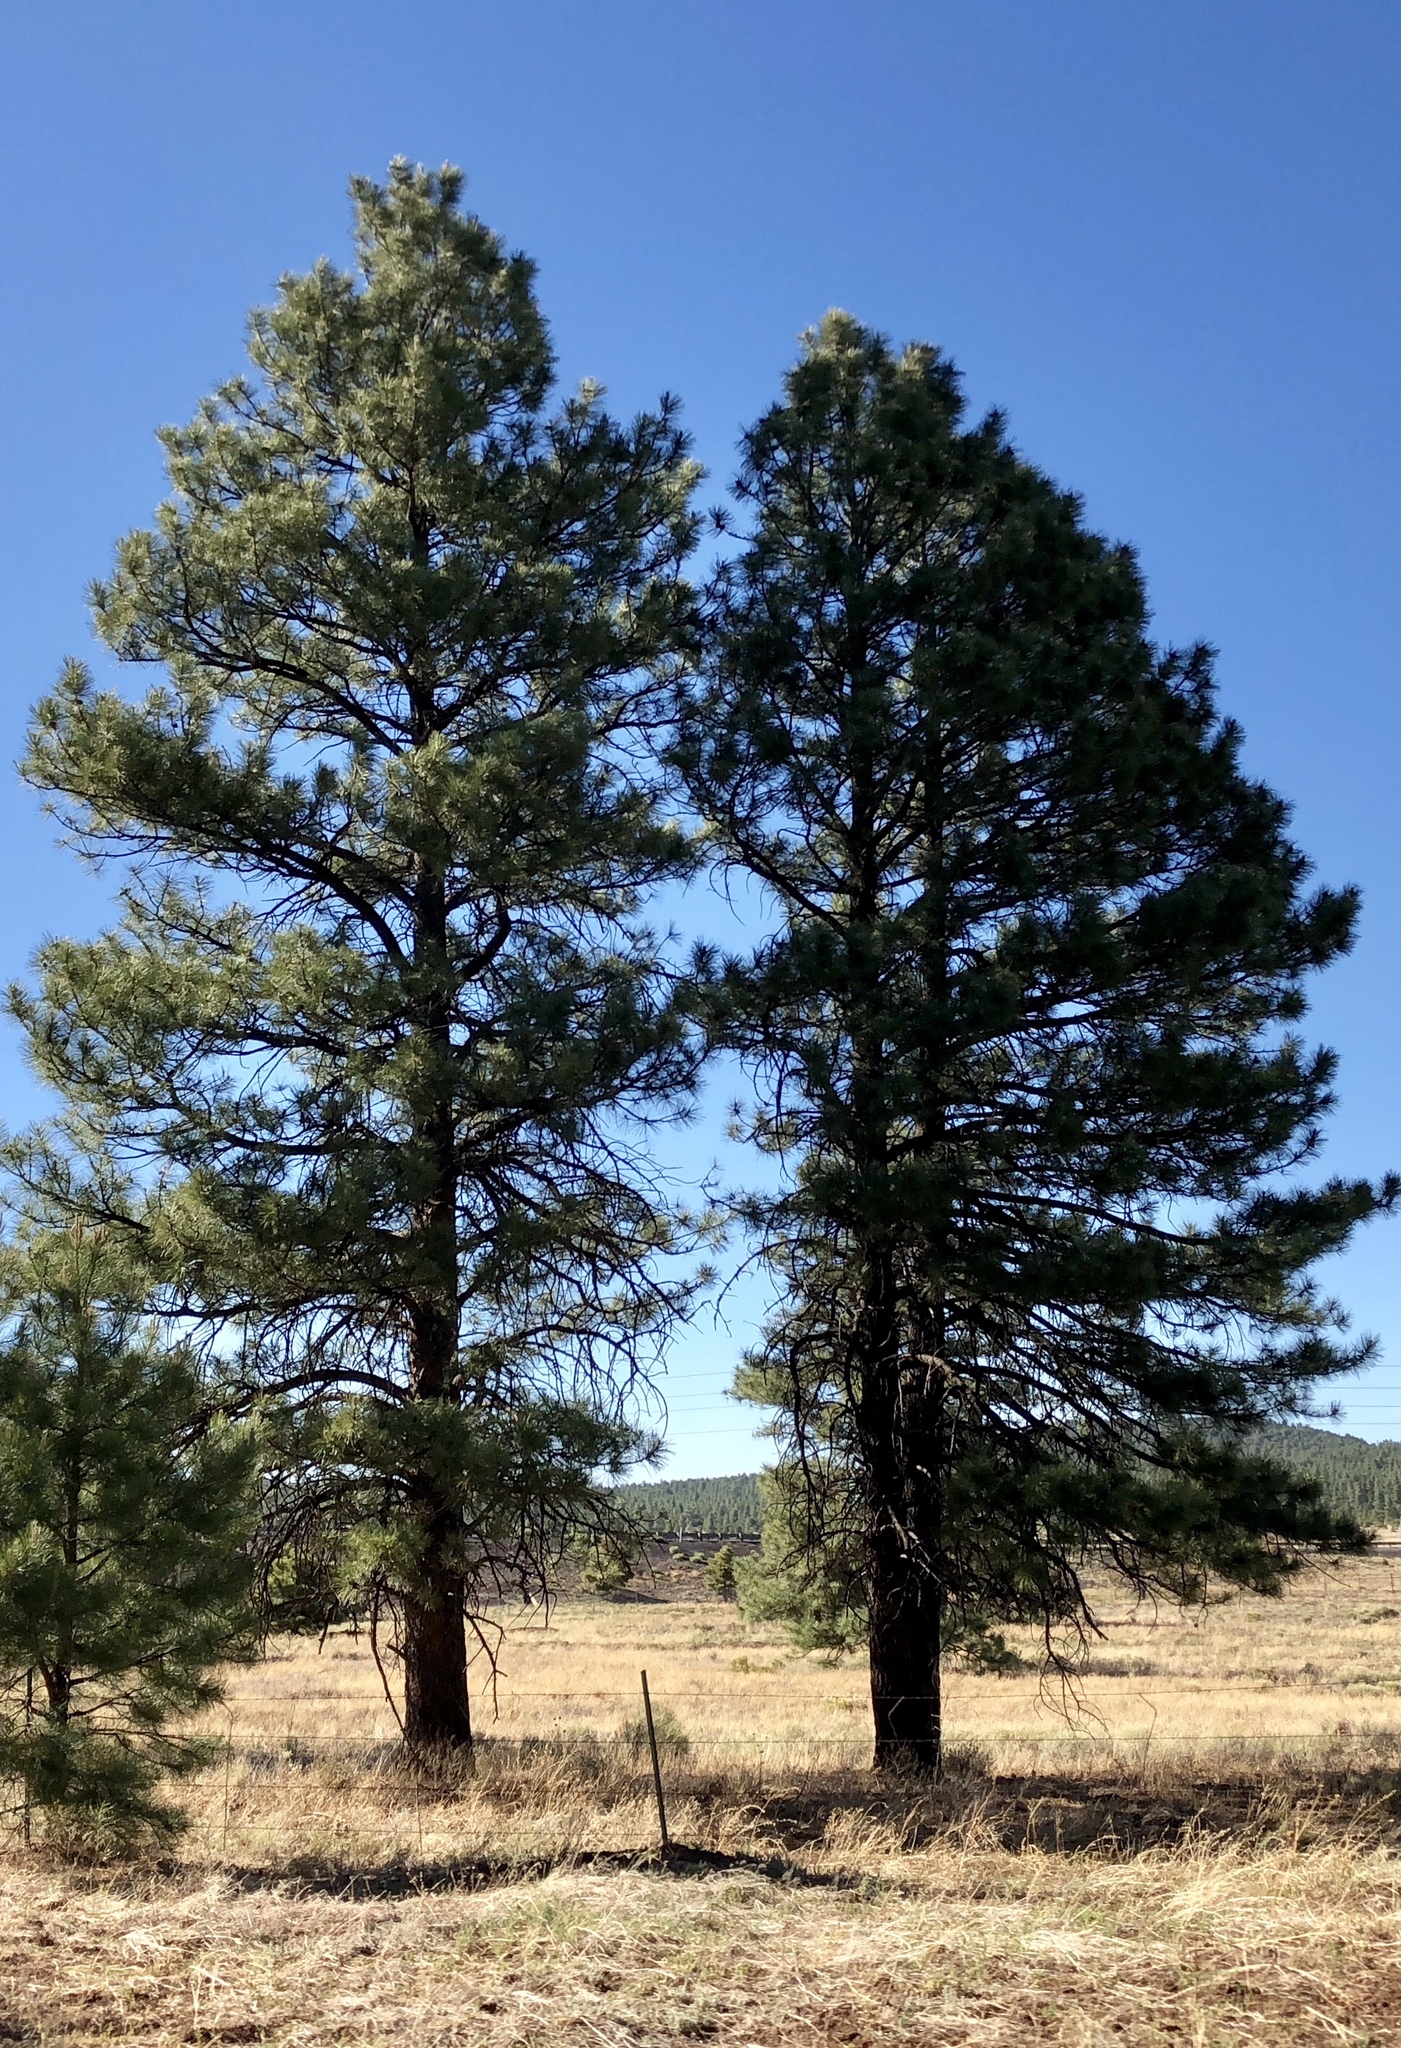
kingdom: Plantae
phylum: Tracheophyta
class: Pinopsida
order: Pinales
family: Pinaceae
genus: Pinus
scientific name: Pinus ponderosa
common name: Western yellow-pine
